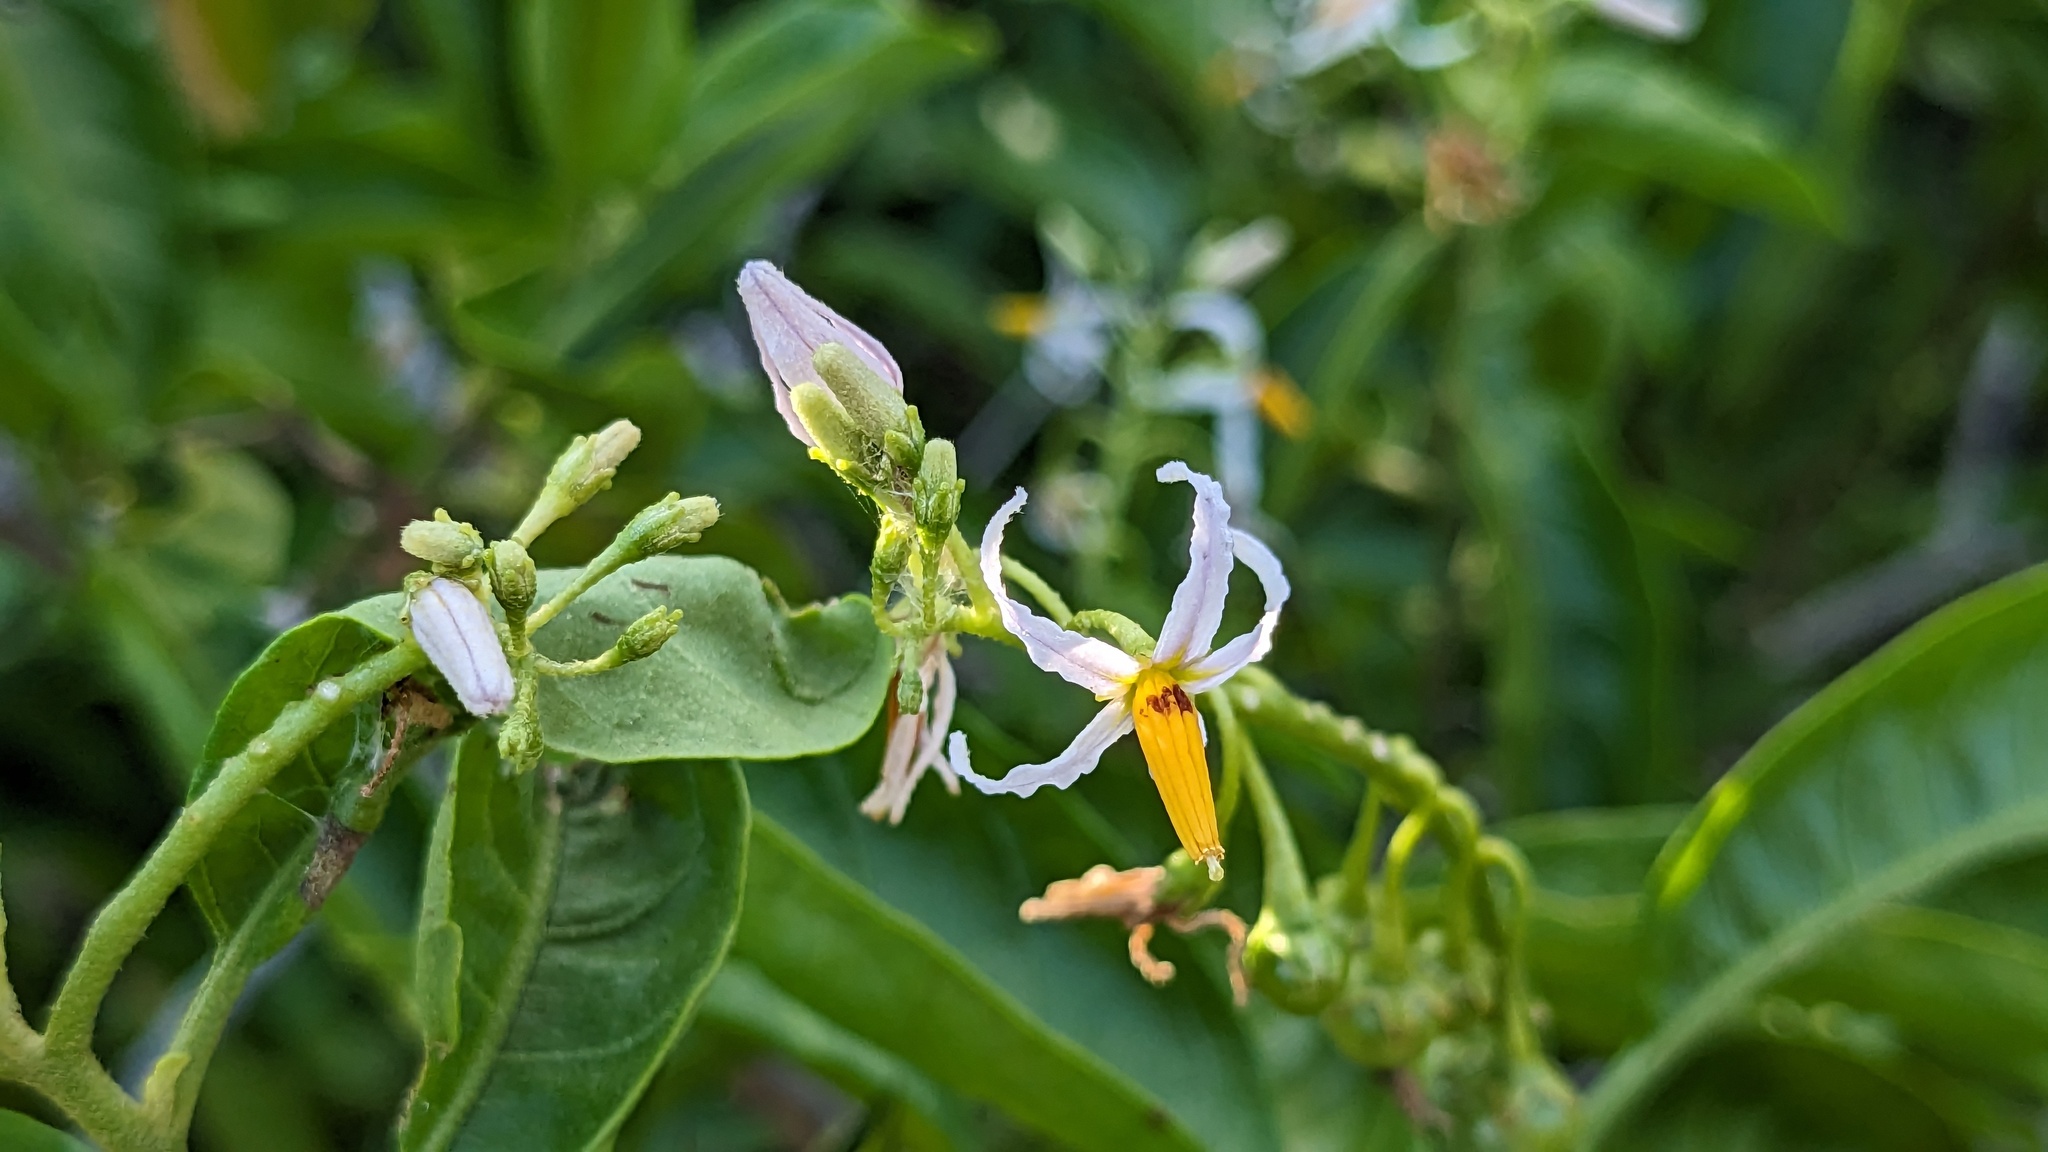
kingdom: Plantae
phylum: Tracheophyta
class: Magnoliopsida
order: Solanales
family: Solanaceae
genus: Solanum
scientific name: Solanum bahamense
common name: Canker-berry
